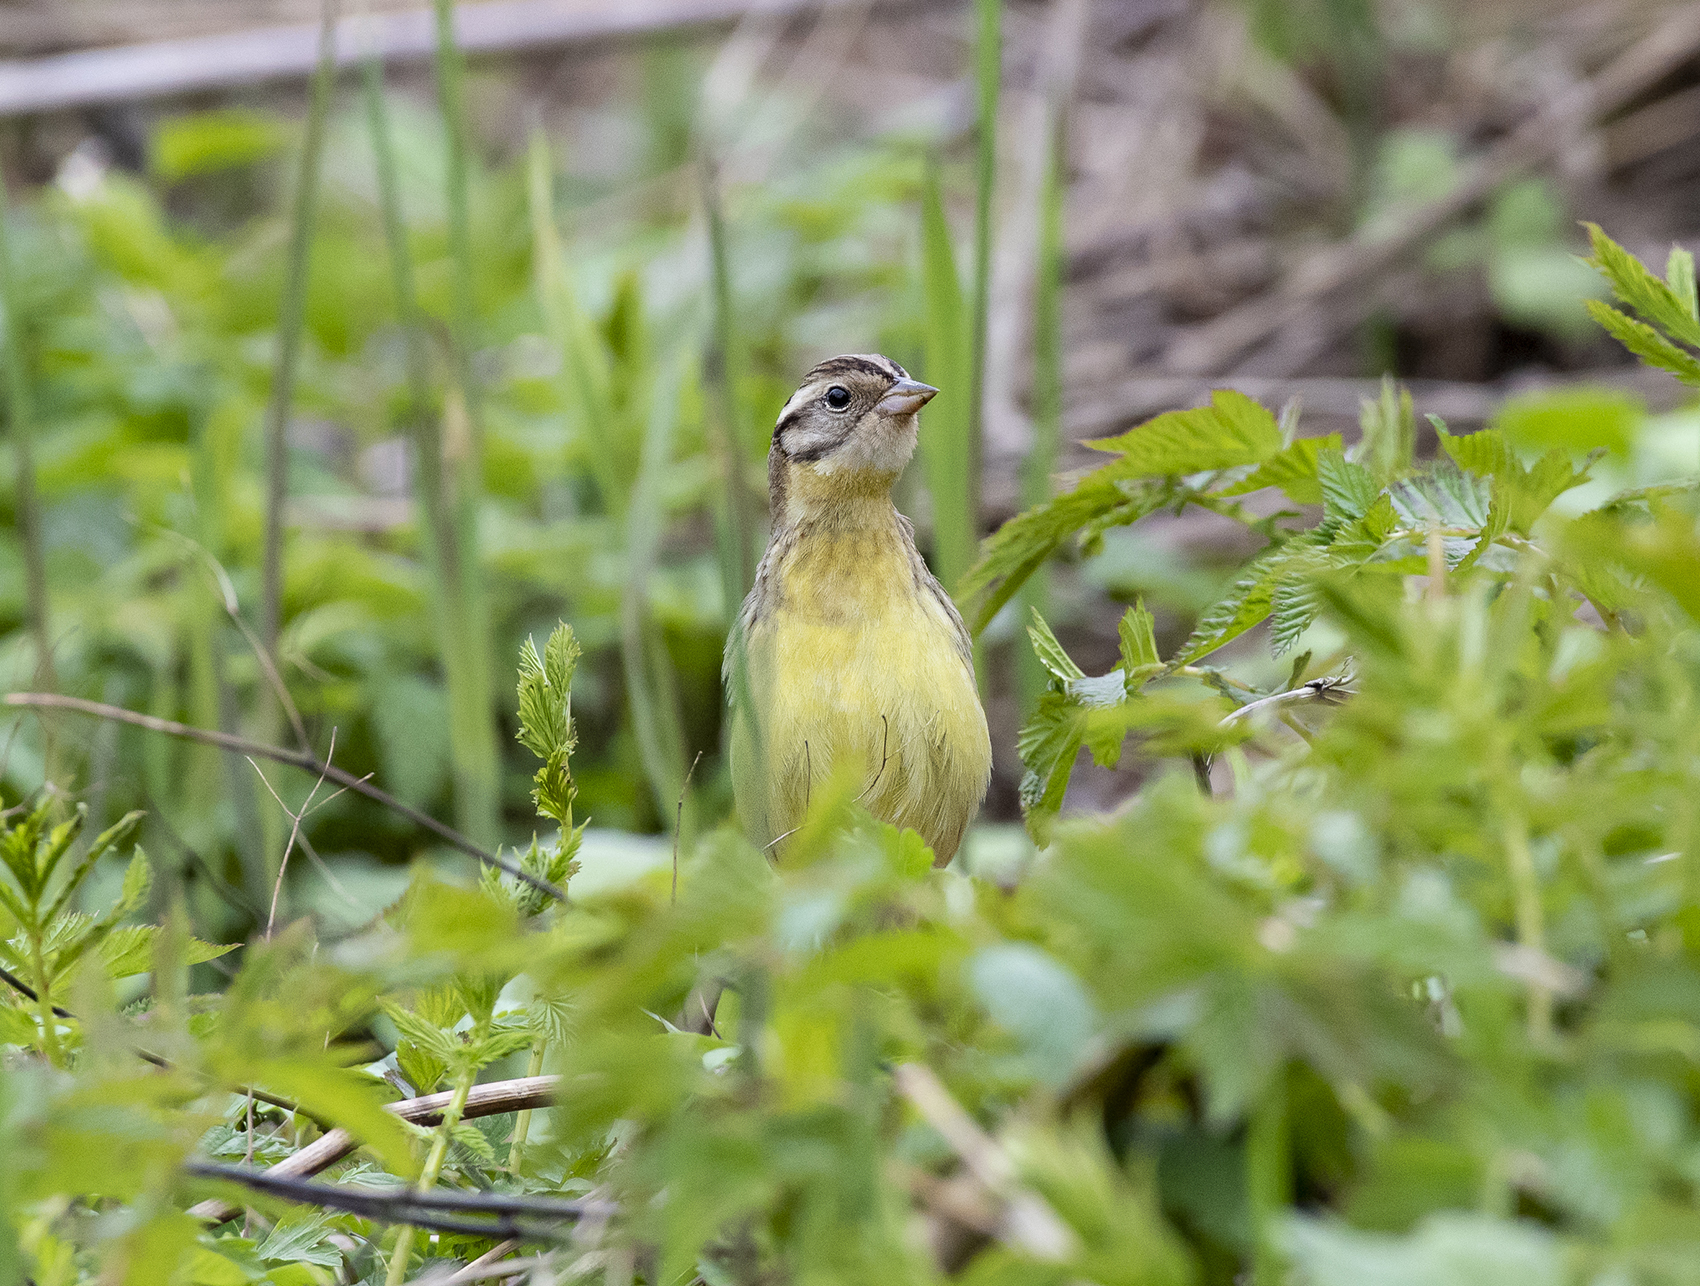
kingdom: Animalia
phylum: Chordata
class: Aves
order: Passeriformes
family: Emberizidae
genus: Emberiza
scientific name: Emberiza aureola
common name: Yellow-breasted bunting
